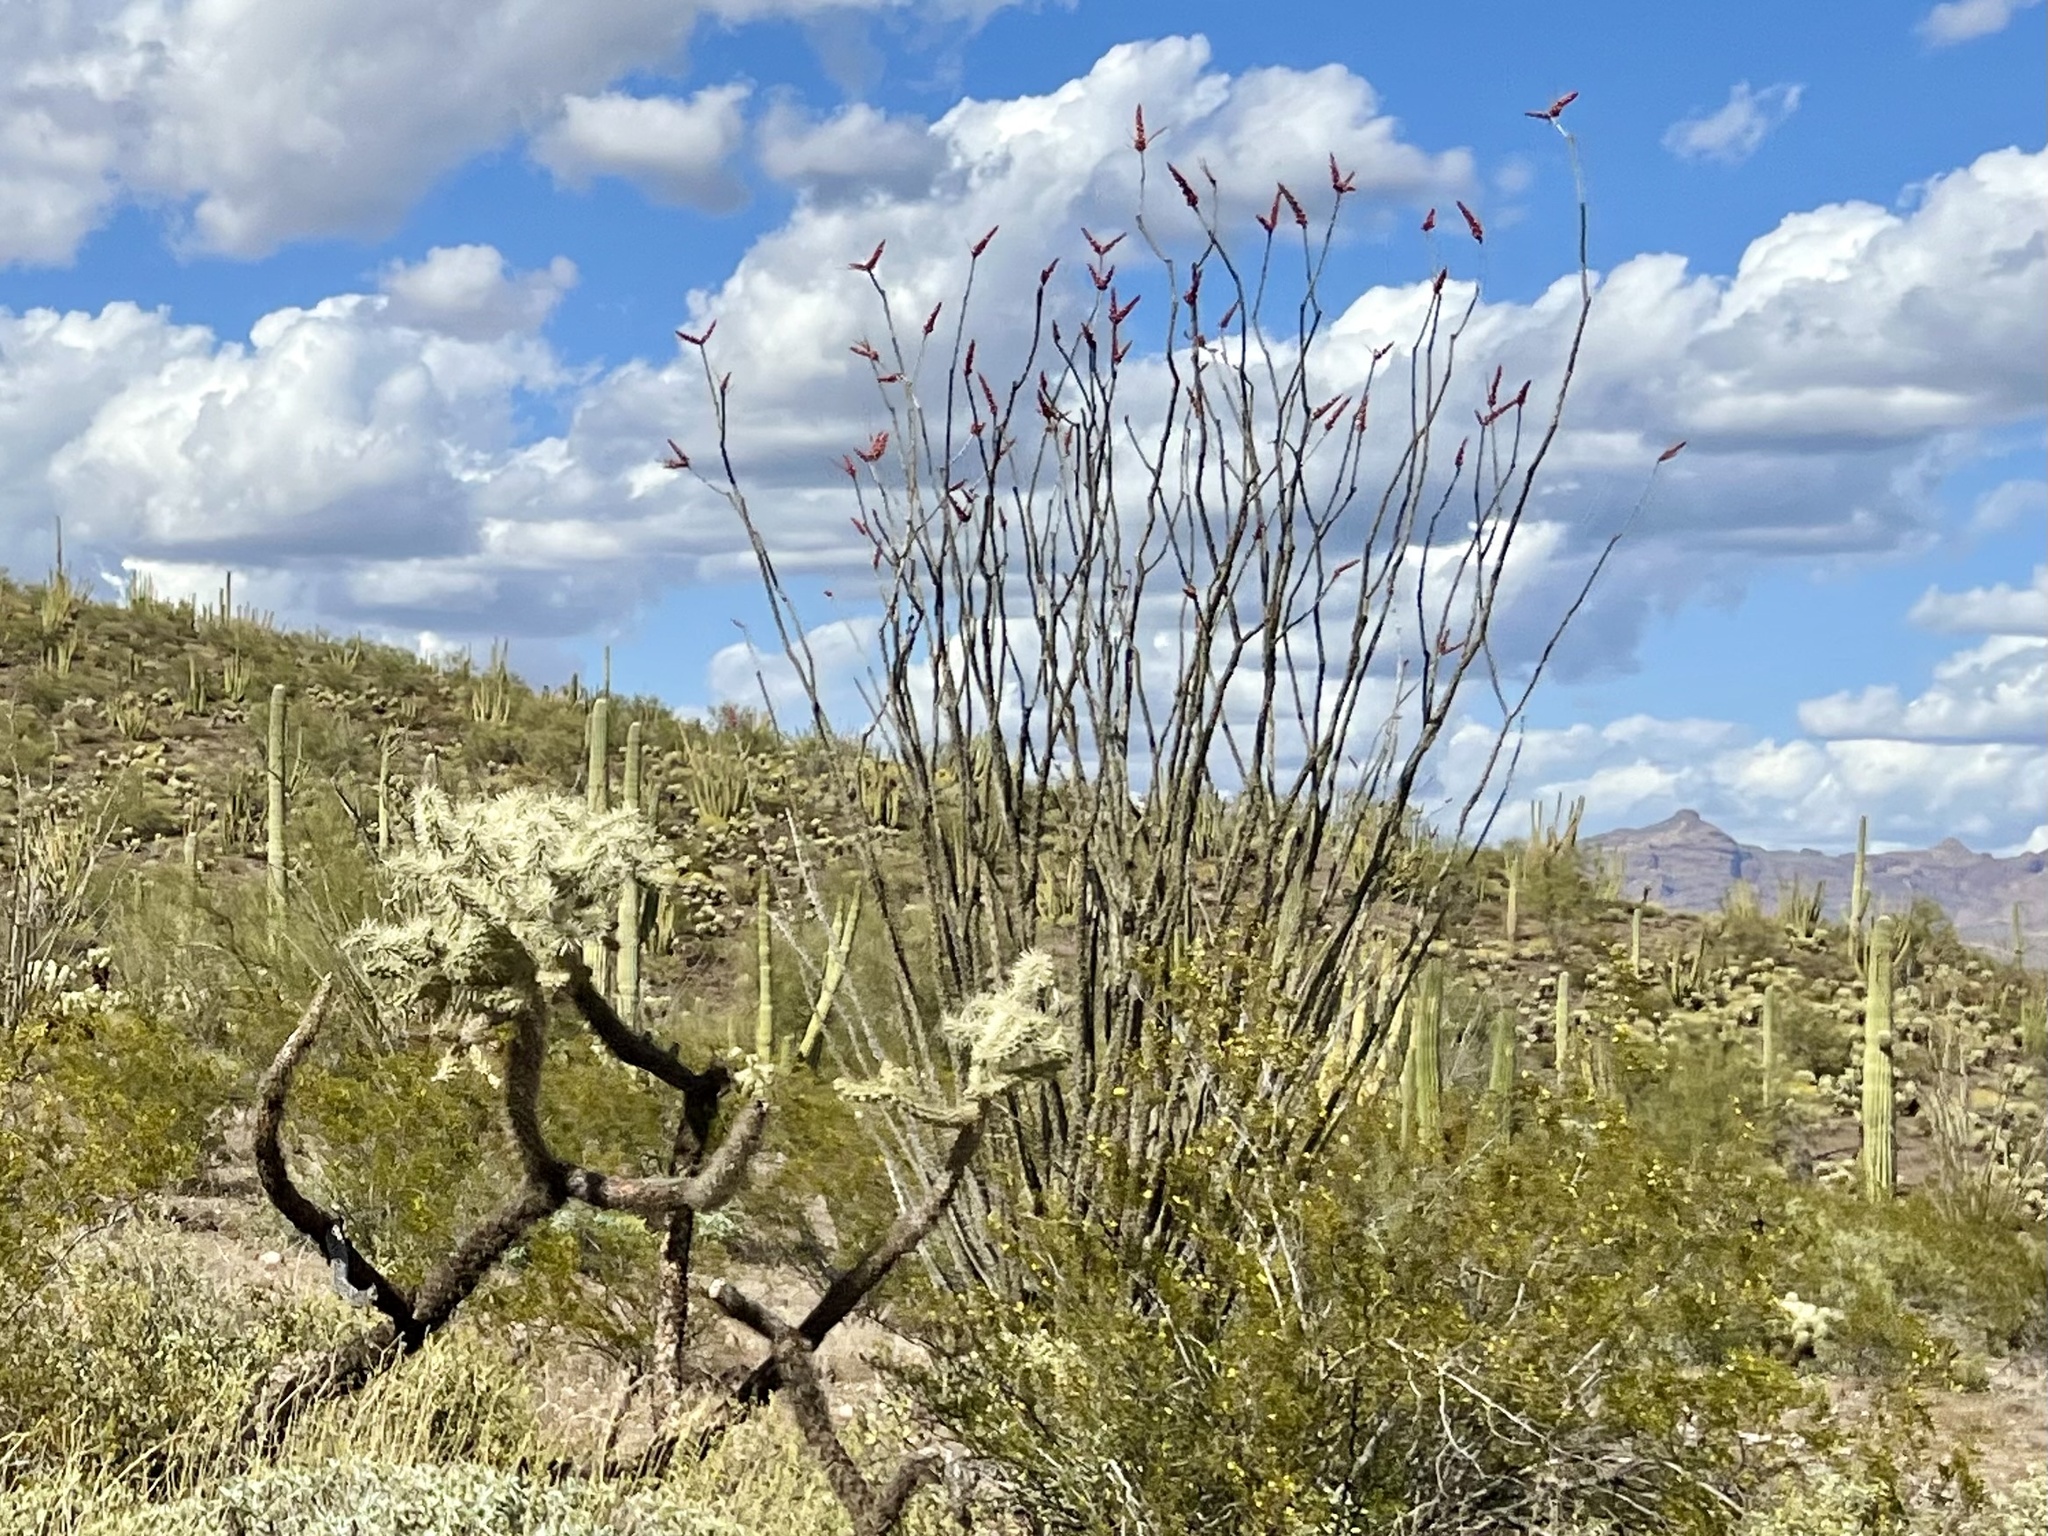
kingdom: Plantae
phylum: Tracheophyta
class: Magnoliopsida
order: Ericales
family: Fouquieriaceae
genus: Fouquieria
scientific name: Fouquieria splendens
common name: Vine-cactus
